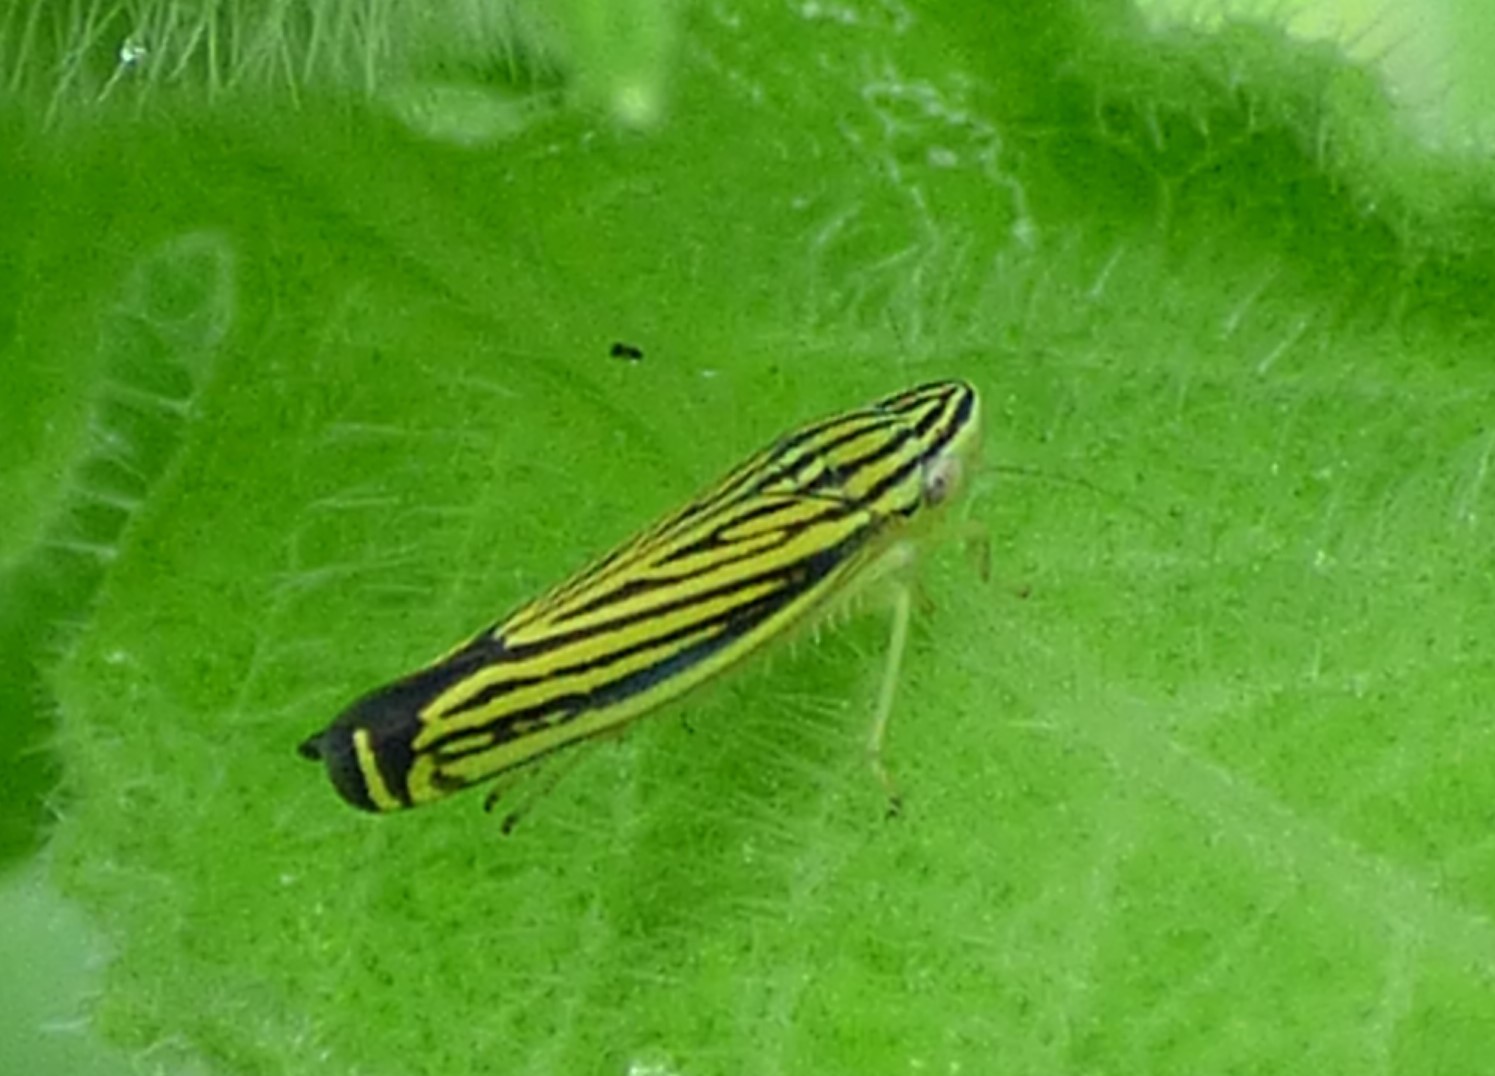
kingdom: Animalia
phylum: Arthropoda
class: Insecta
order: Hemiptera
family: Cicadellidae
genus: Sibovia
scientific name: Sibovia occatoria
